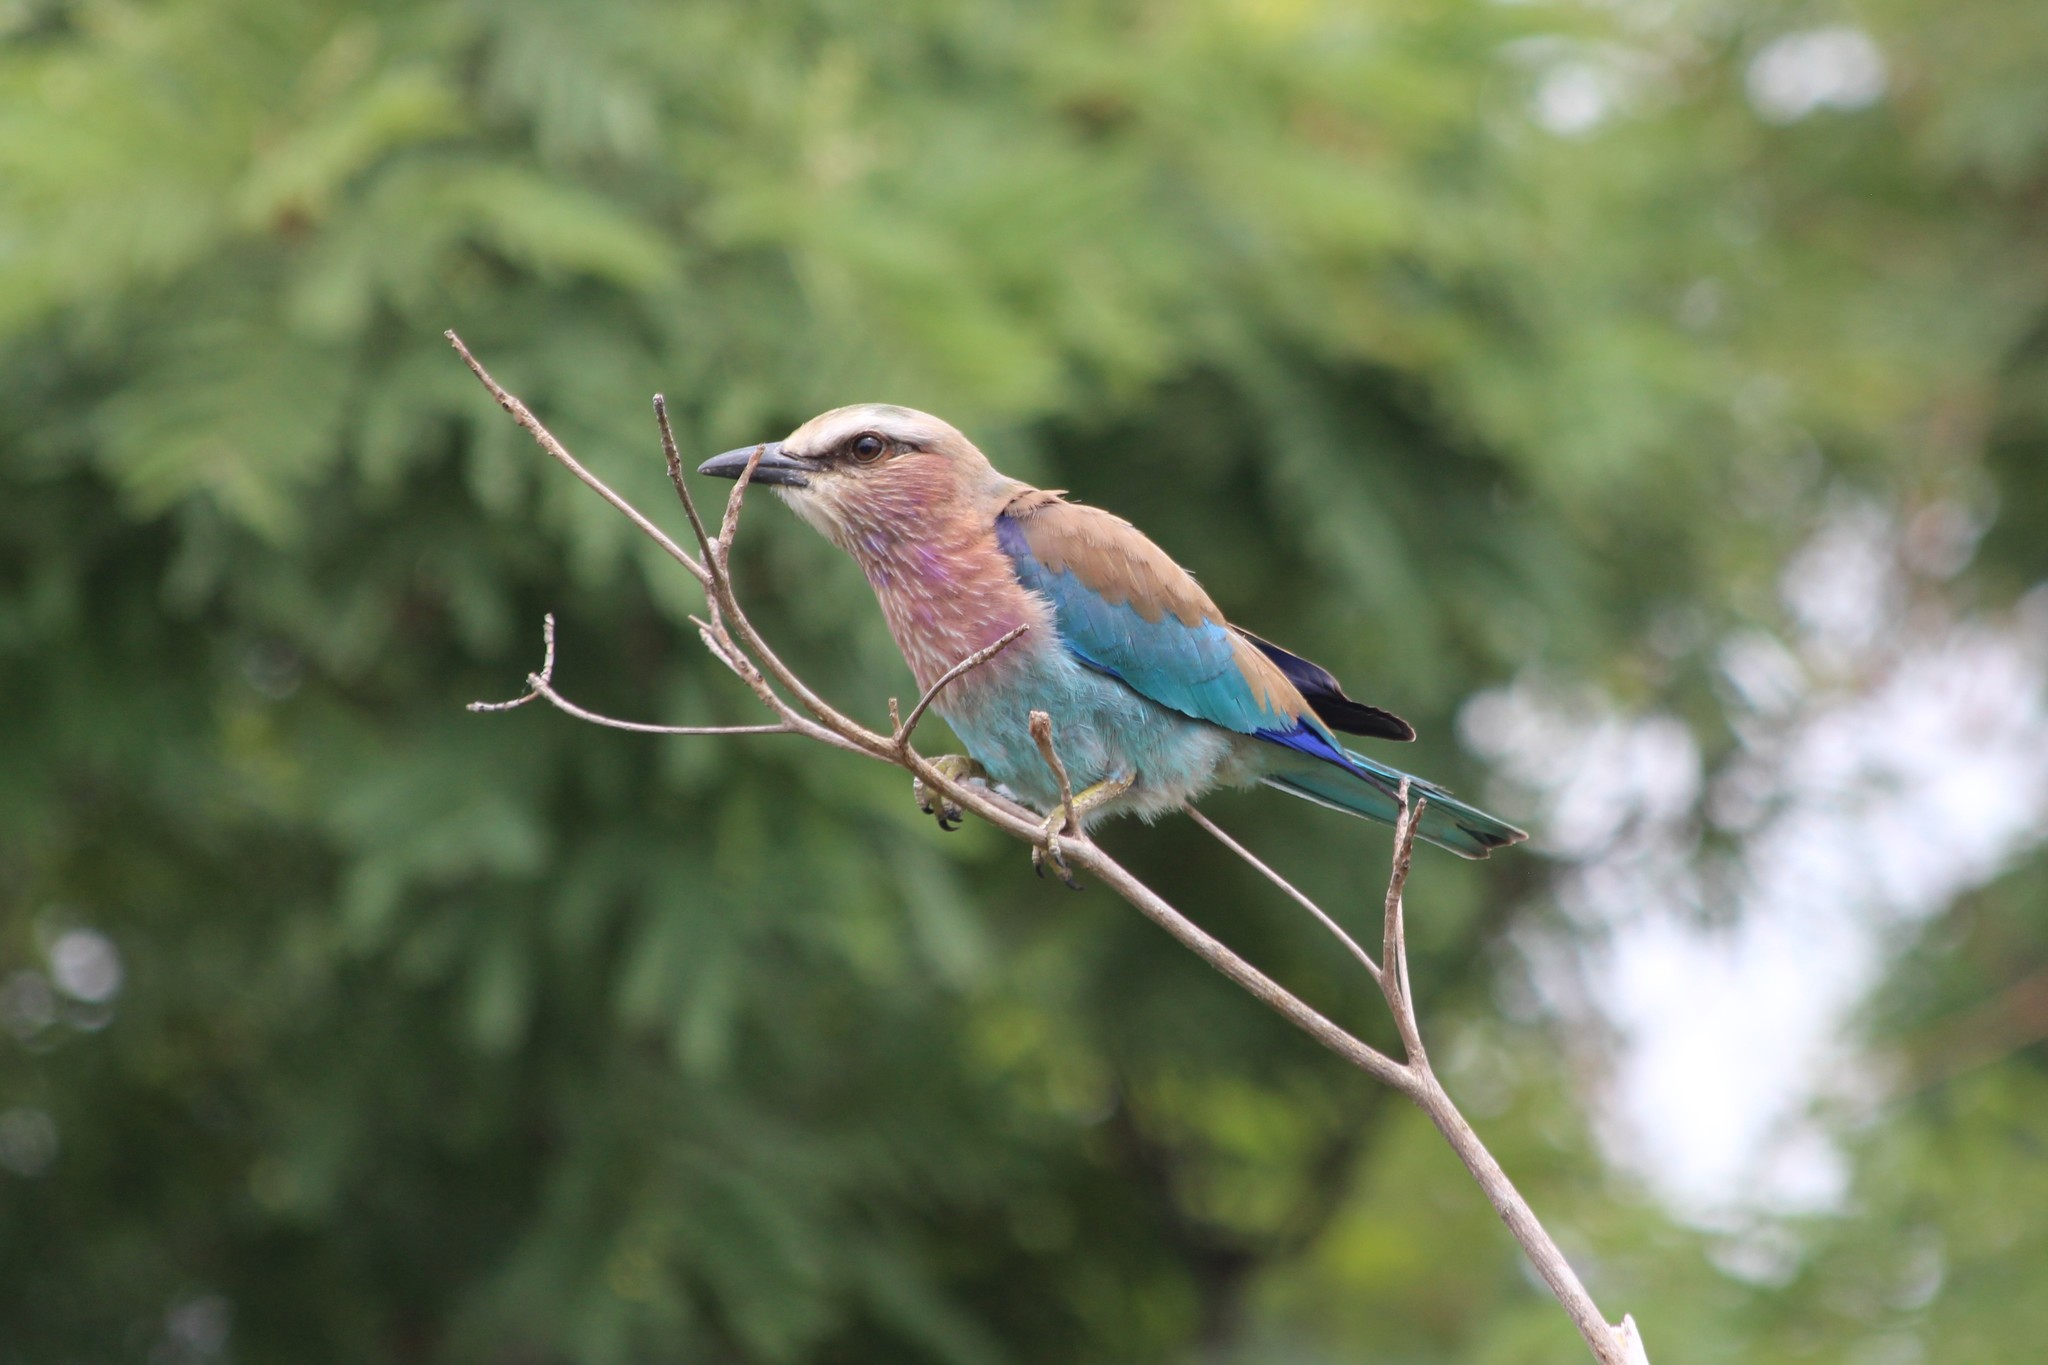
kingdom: Animalia
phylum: Chordata
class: Aves
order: Coraciiformes
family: Coraciidae
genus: Coracias
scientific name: Coracias caudatus
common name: Lilac-breasted roller
